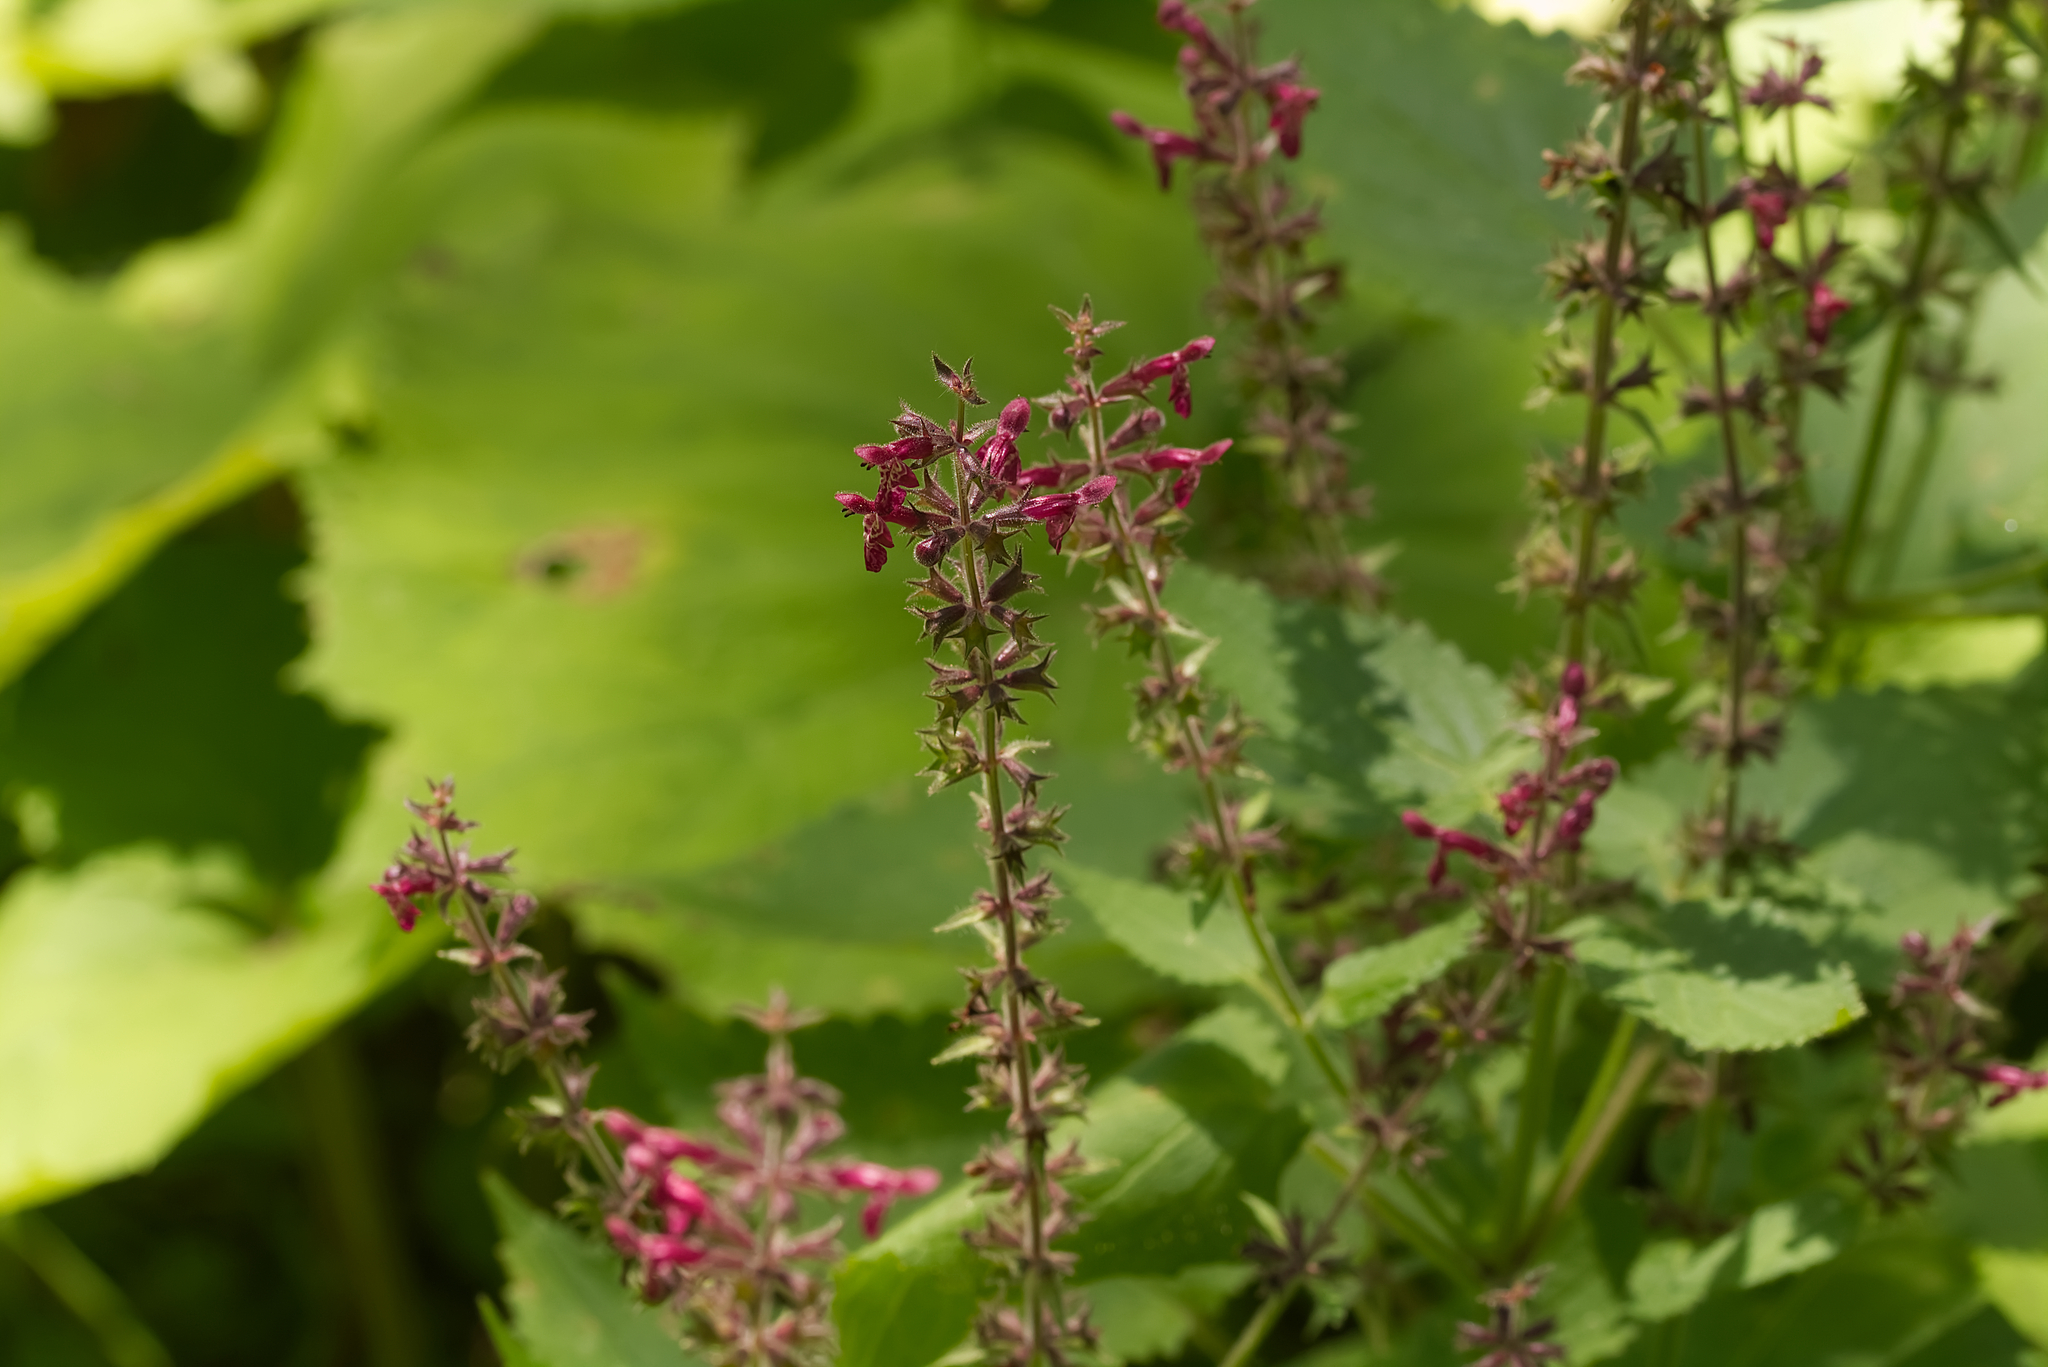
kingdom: Plantae
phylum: Tracheophyta
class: Magnoliopsida
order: Lamiales
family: Lamiaceae
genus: Stachys
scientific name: Stachys sylvatica
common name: Hedge woundwort
